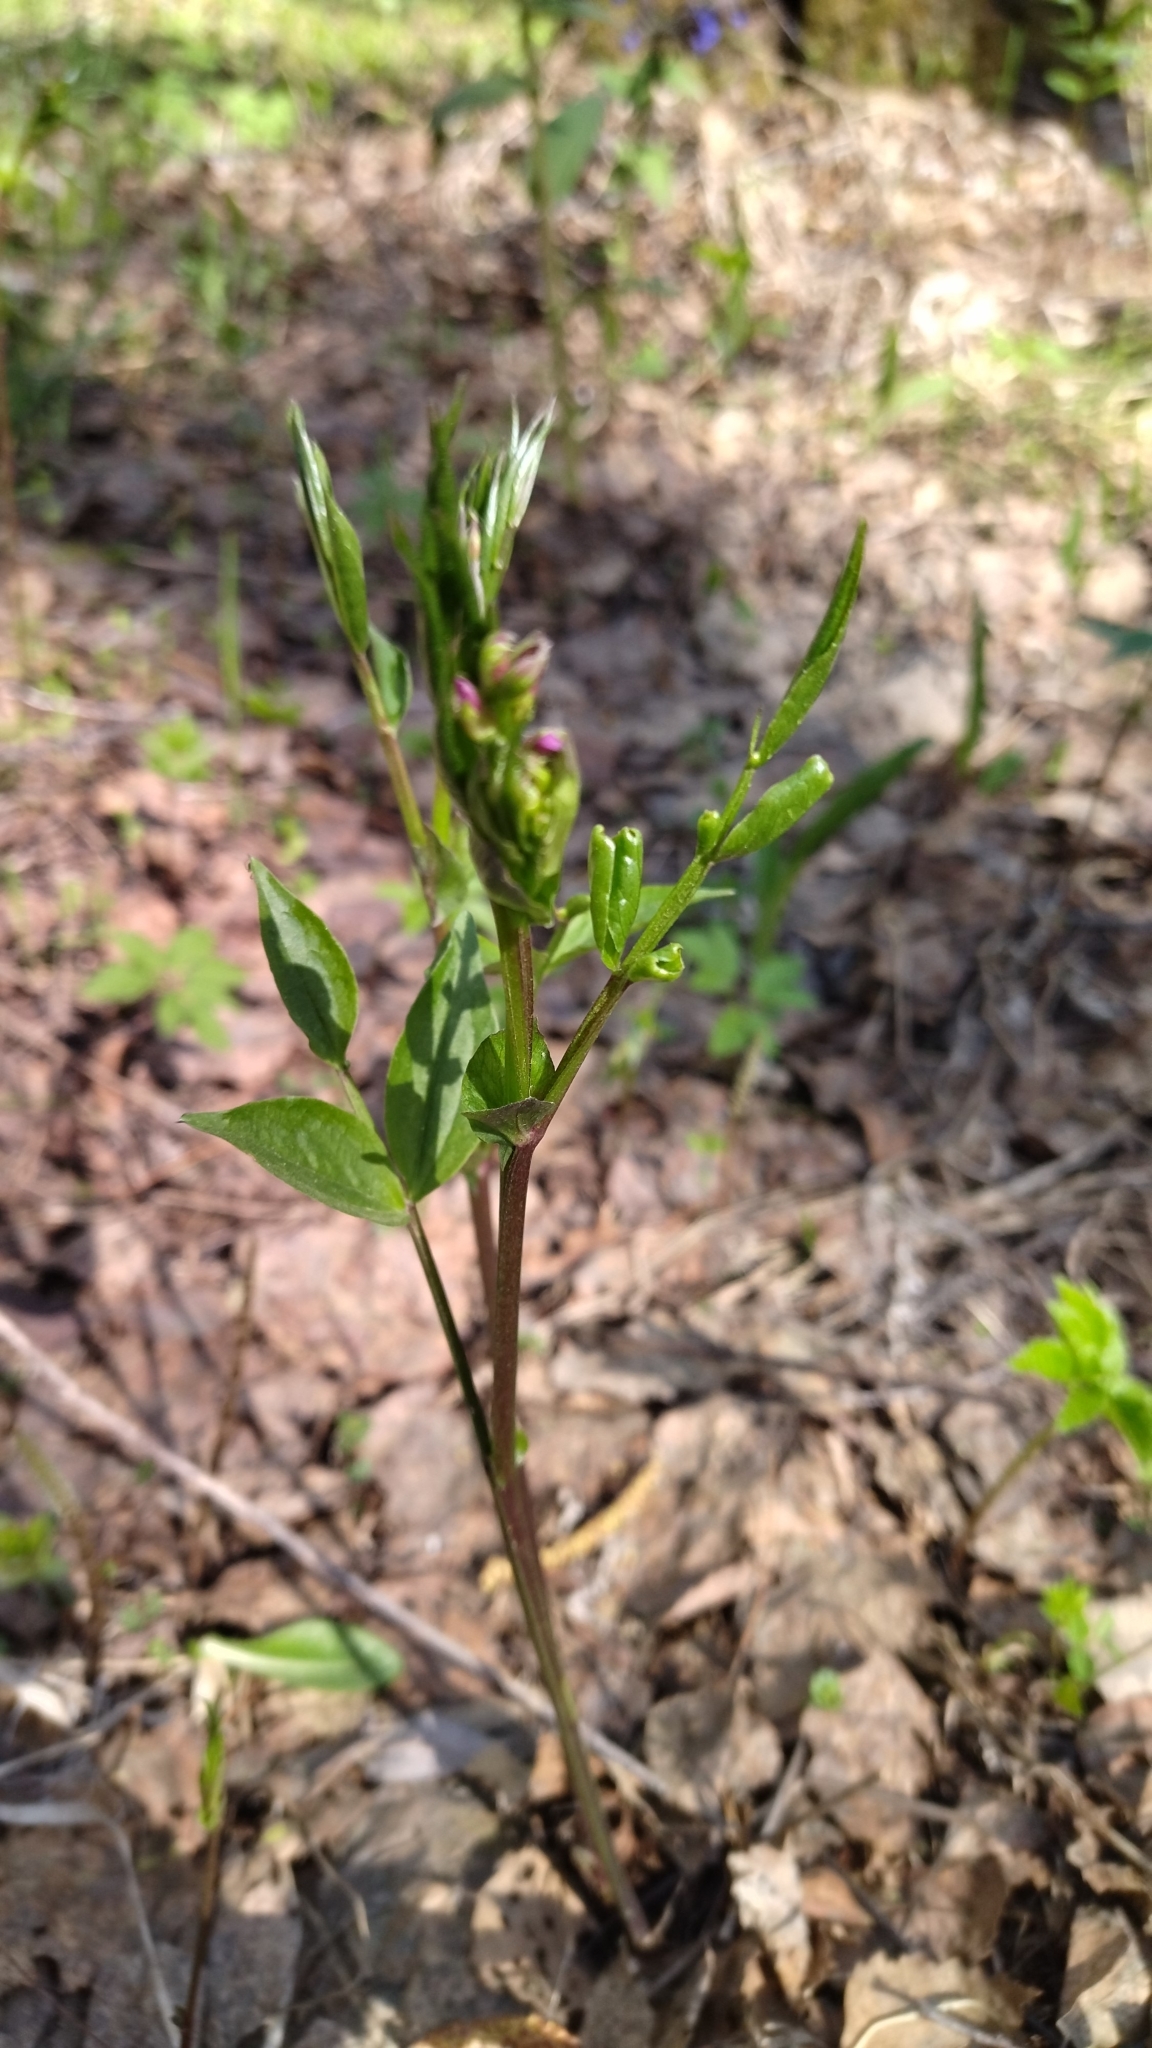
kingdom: Plantae
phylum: Tracheophyta
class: Magnoliopsida
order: Fabales
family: Fabaceae
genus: Lathyrus
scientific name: Lathyrus vernus
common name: Spring pea
